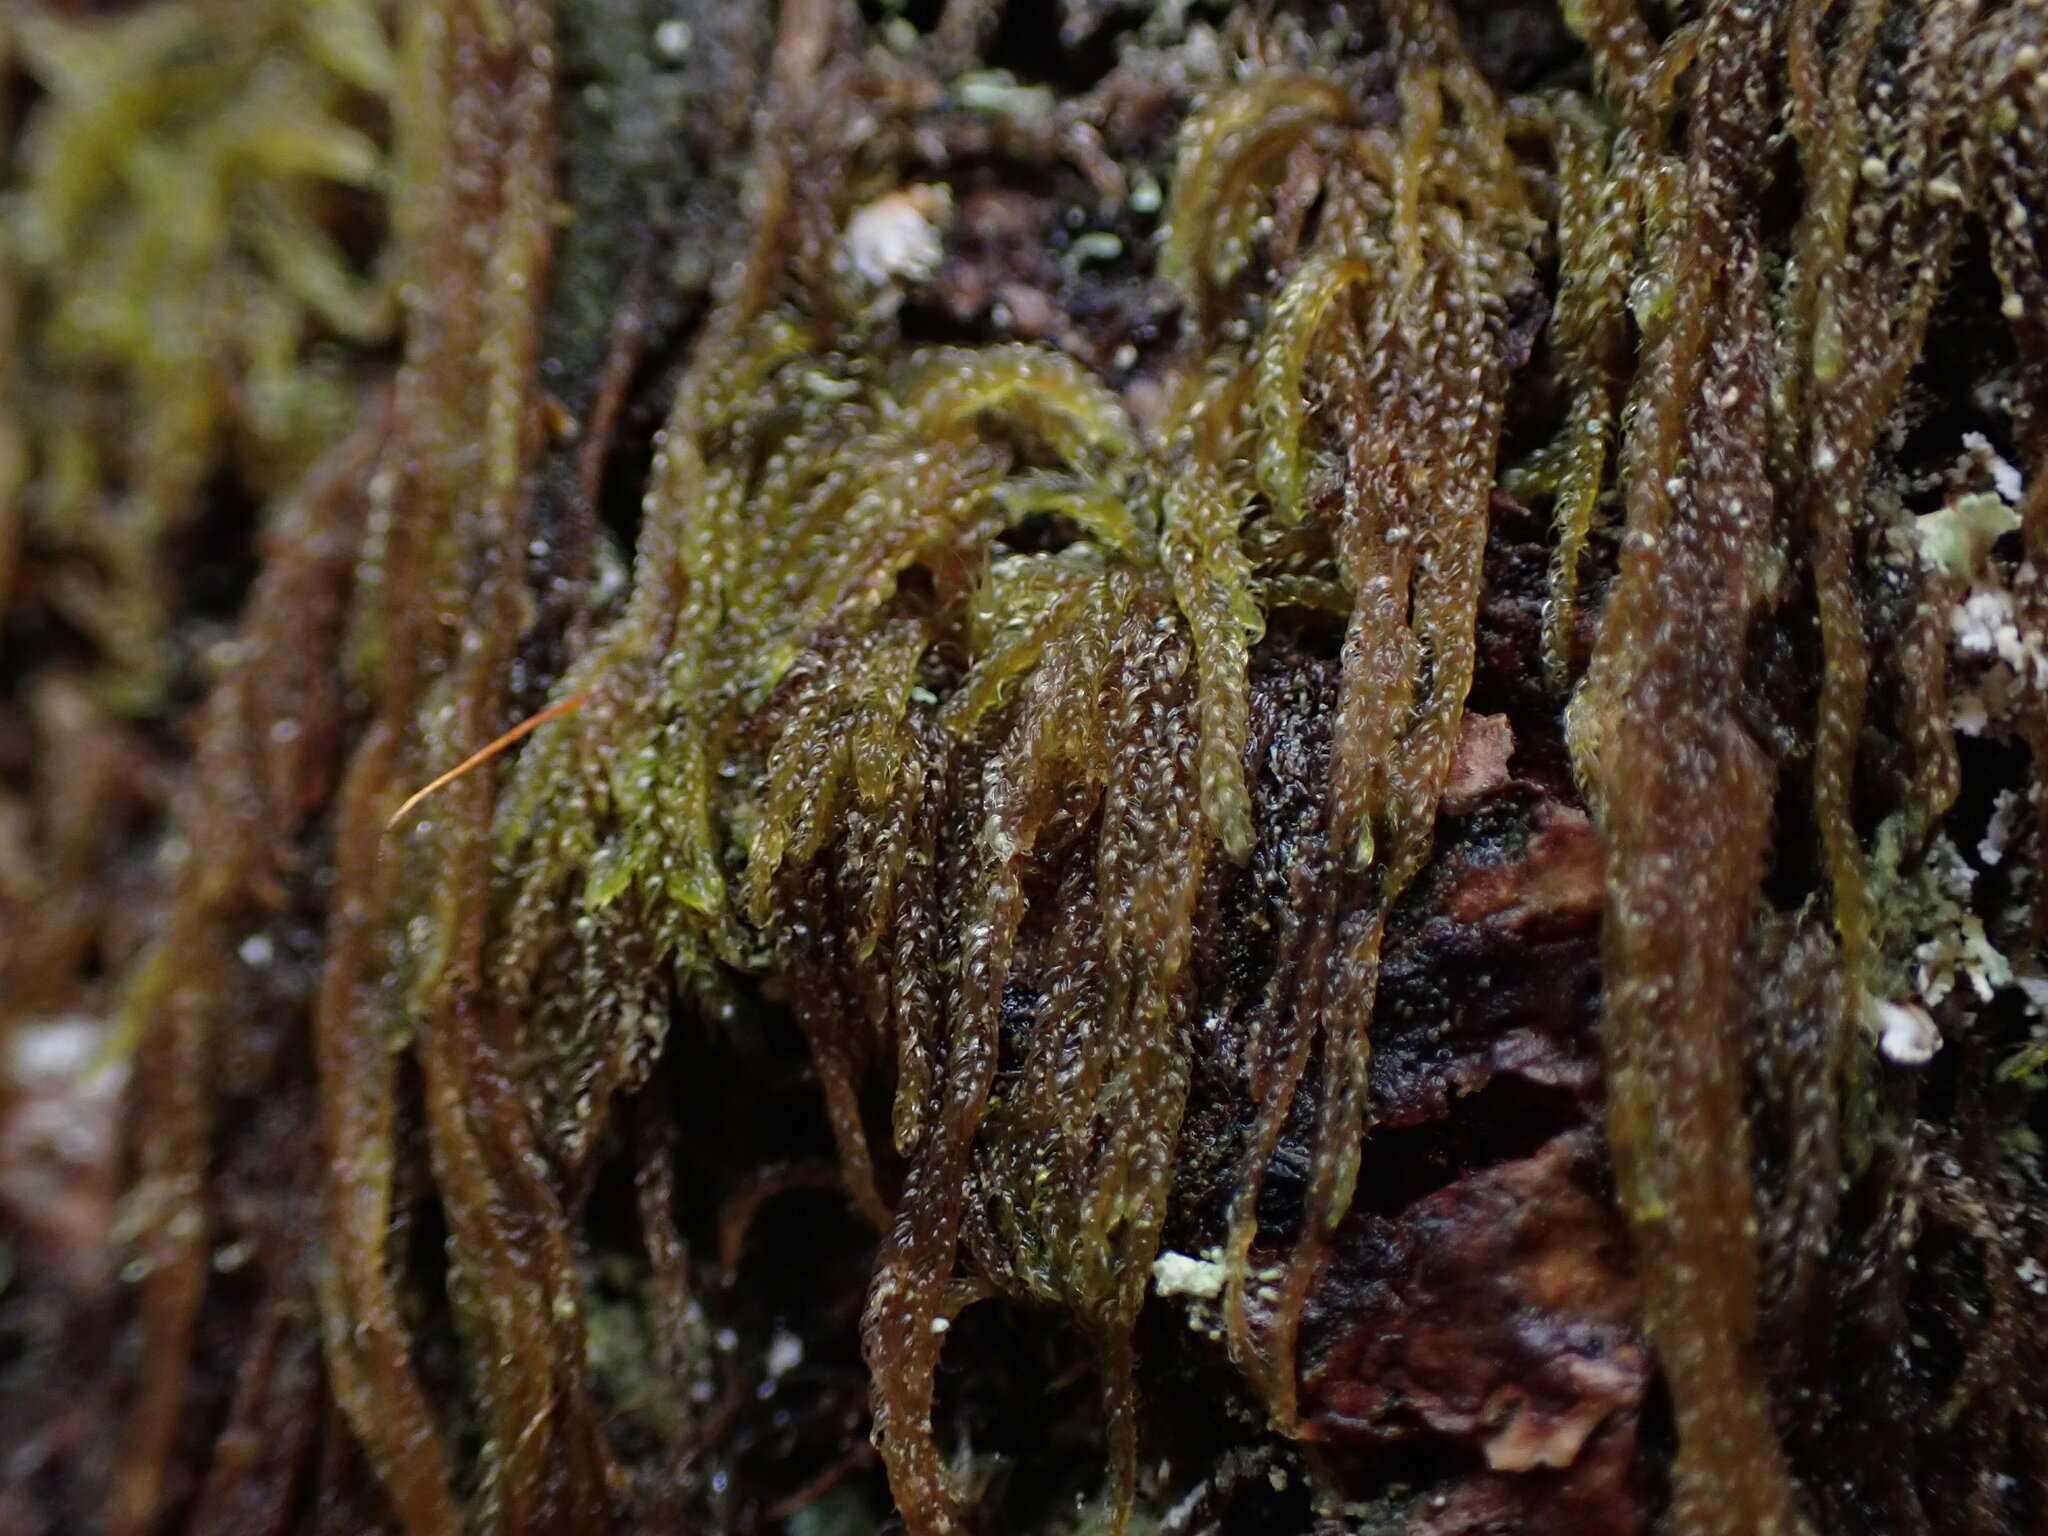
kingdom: Plantae
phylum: Bryophyta
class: Bryopsida
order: Hypnales
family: Pylaisiadelphaceae
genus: Trochophyllohypnum
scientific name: Trochophyllohypnum circinale
